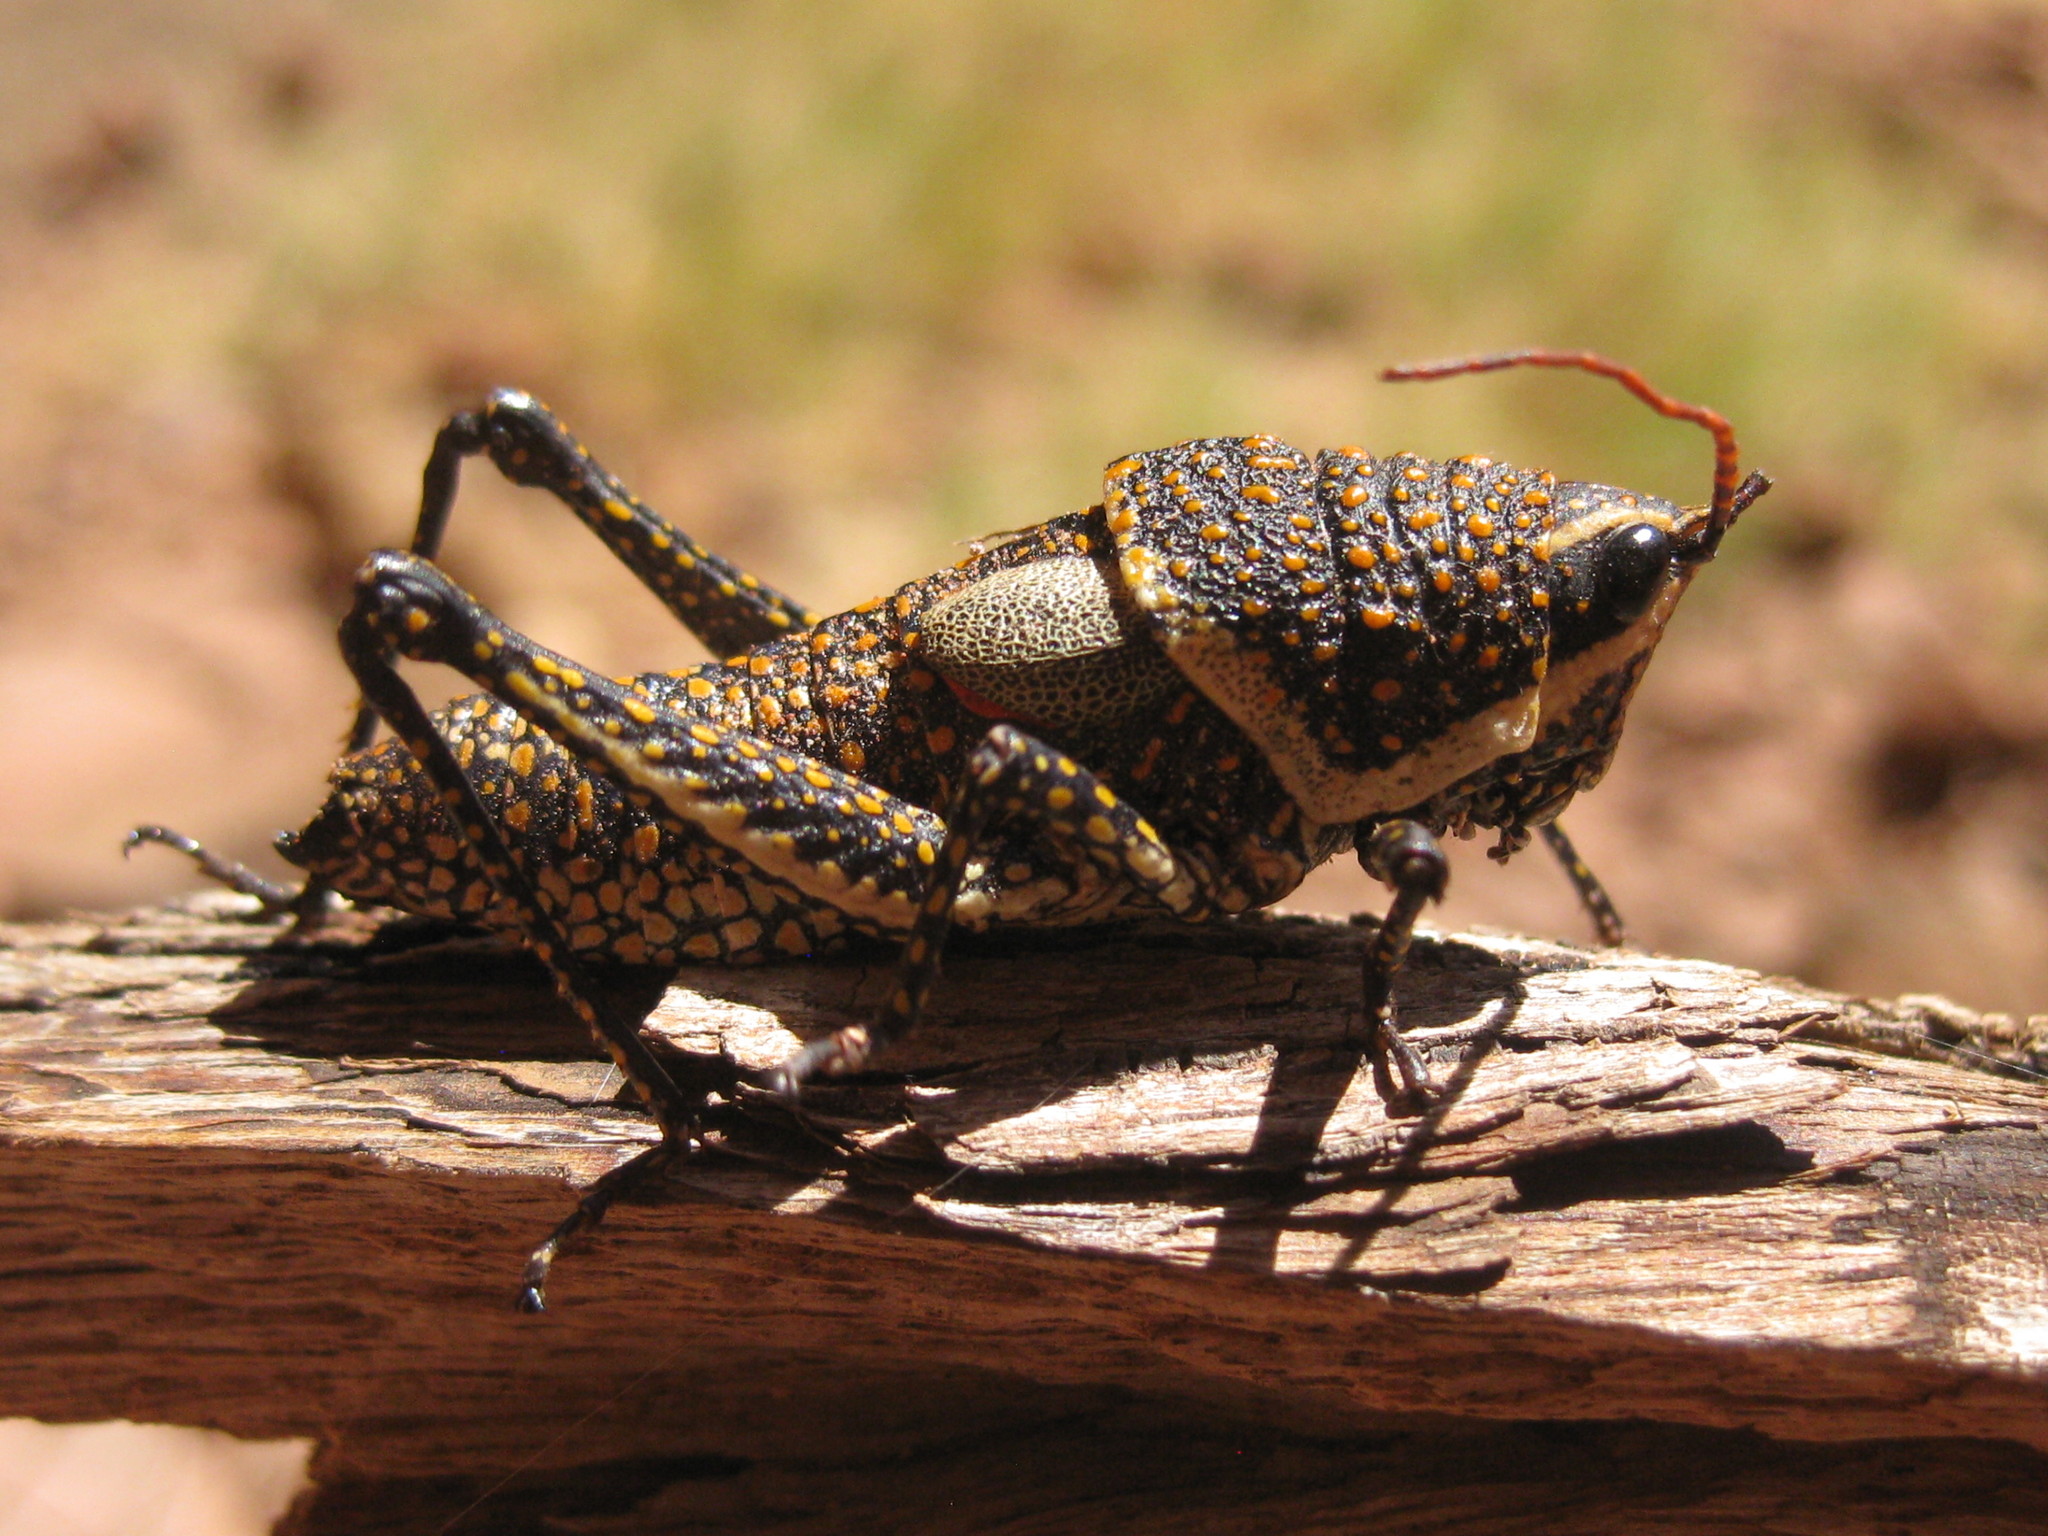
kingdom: Animalia
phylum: Arthropoda
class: Insecta
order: Orthoptera
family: Pyrgomorphidae
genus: Greyacris
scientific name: Greyacris picta
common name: Painted pyromorph
